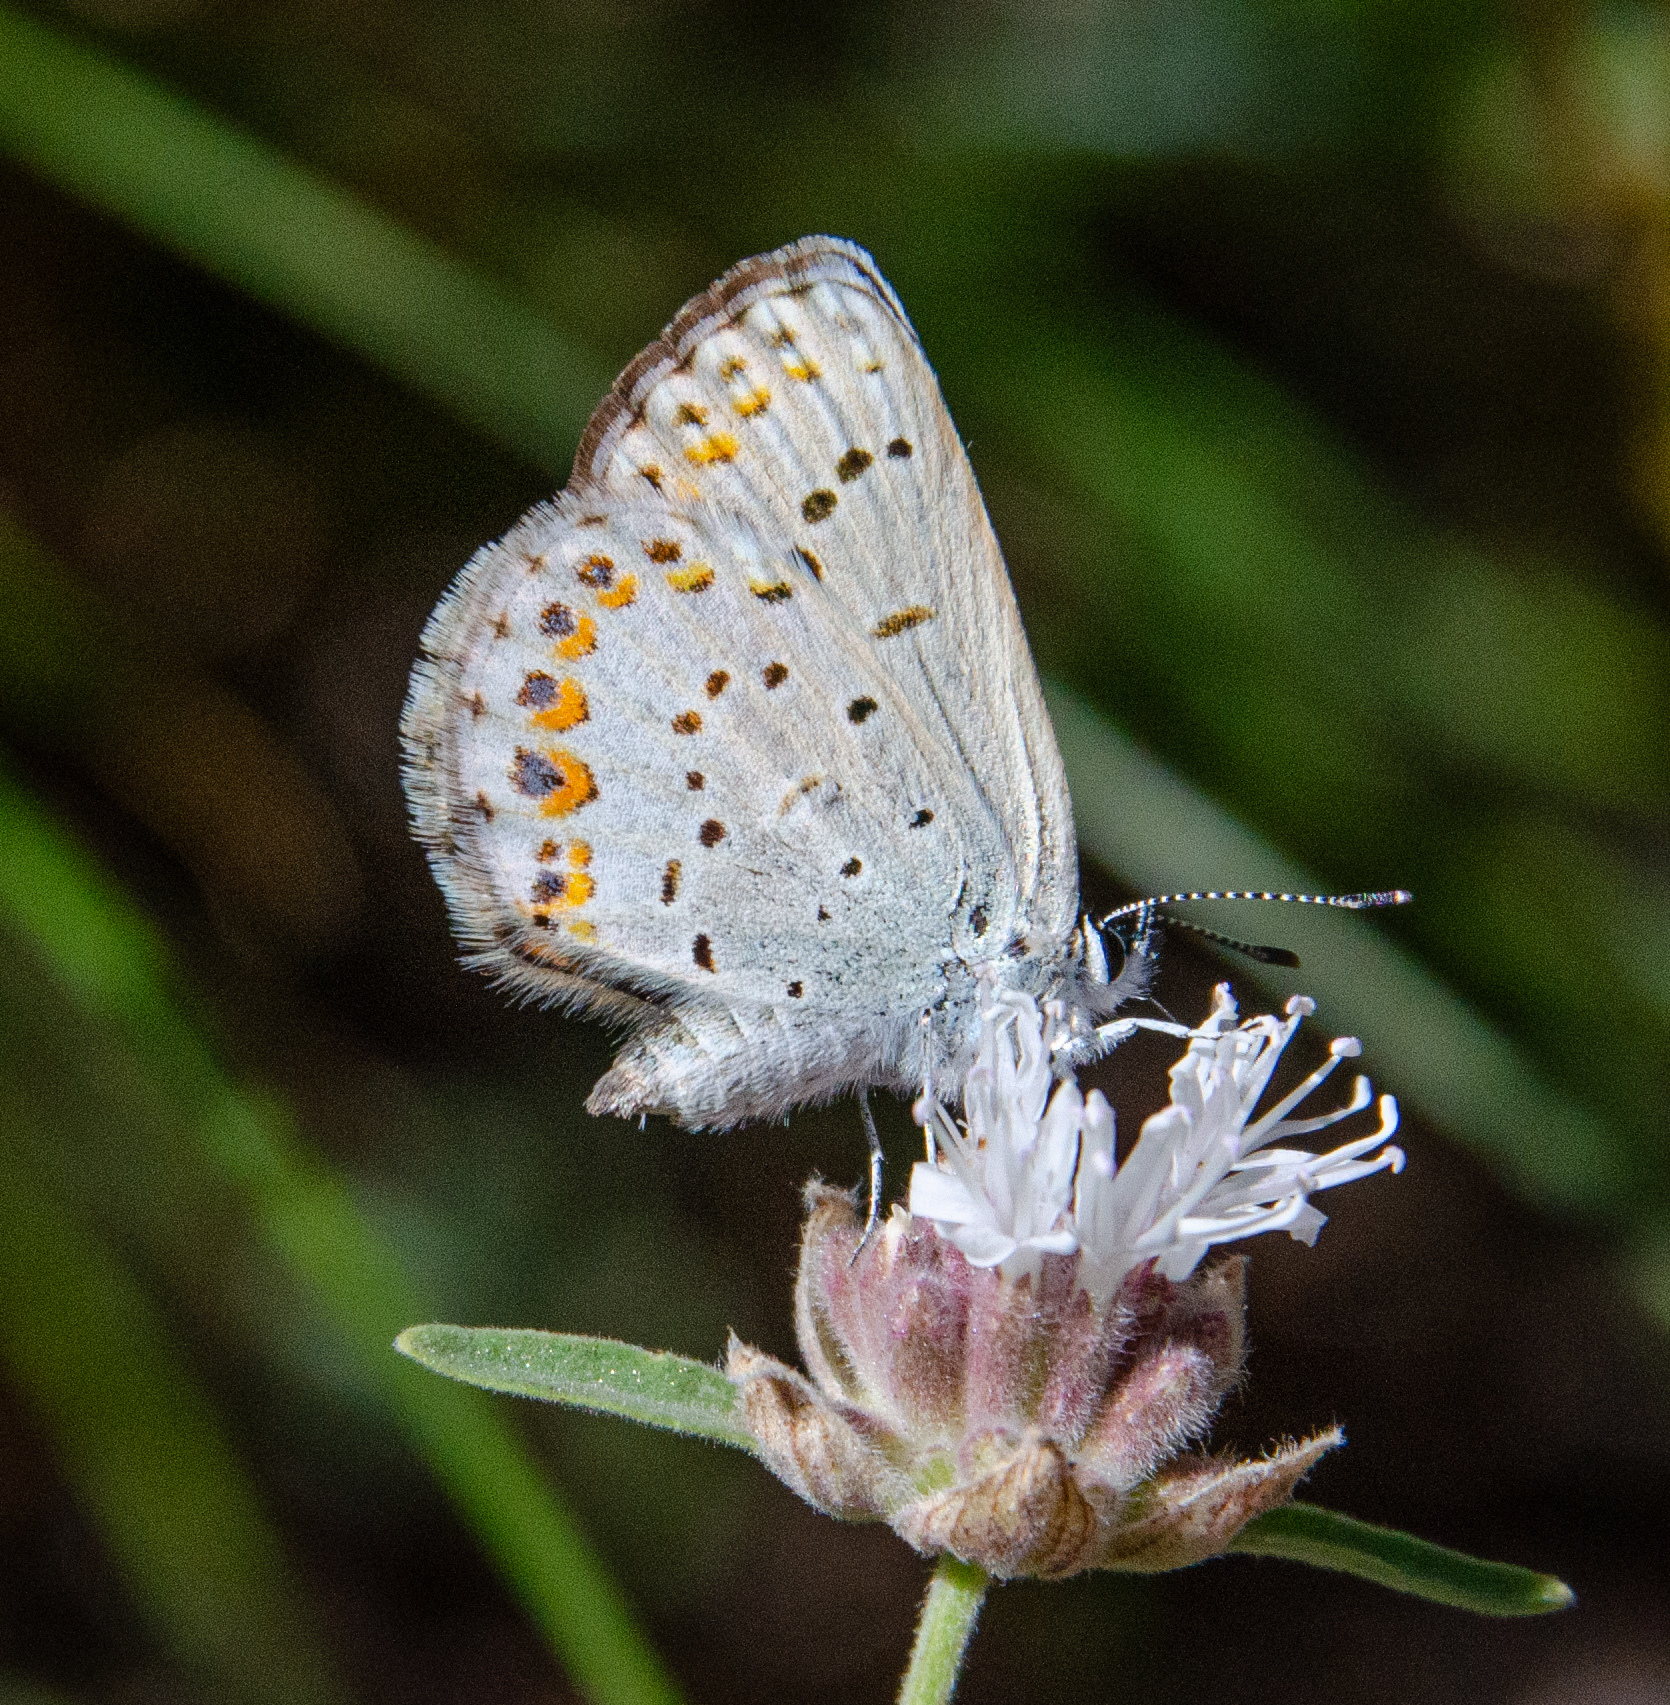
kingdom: Animalia
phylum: Arthropoda
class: Insecta
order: Lepidoptera
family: Lycaenidae
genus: Lycaeides
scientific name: Lycaeides anna
